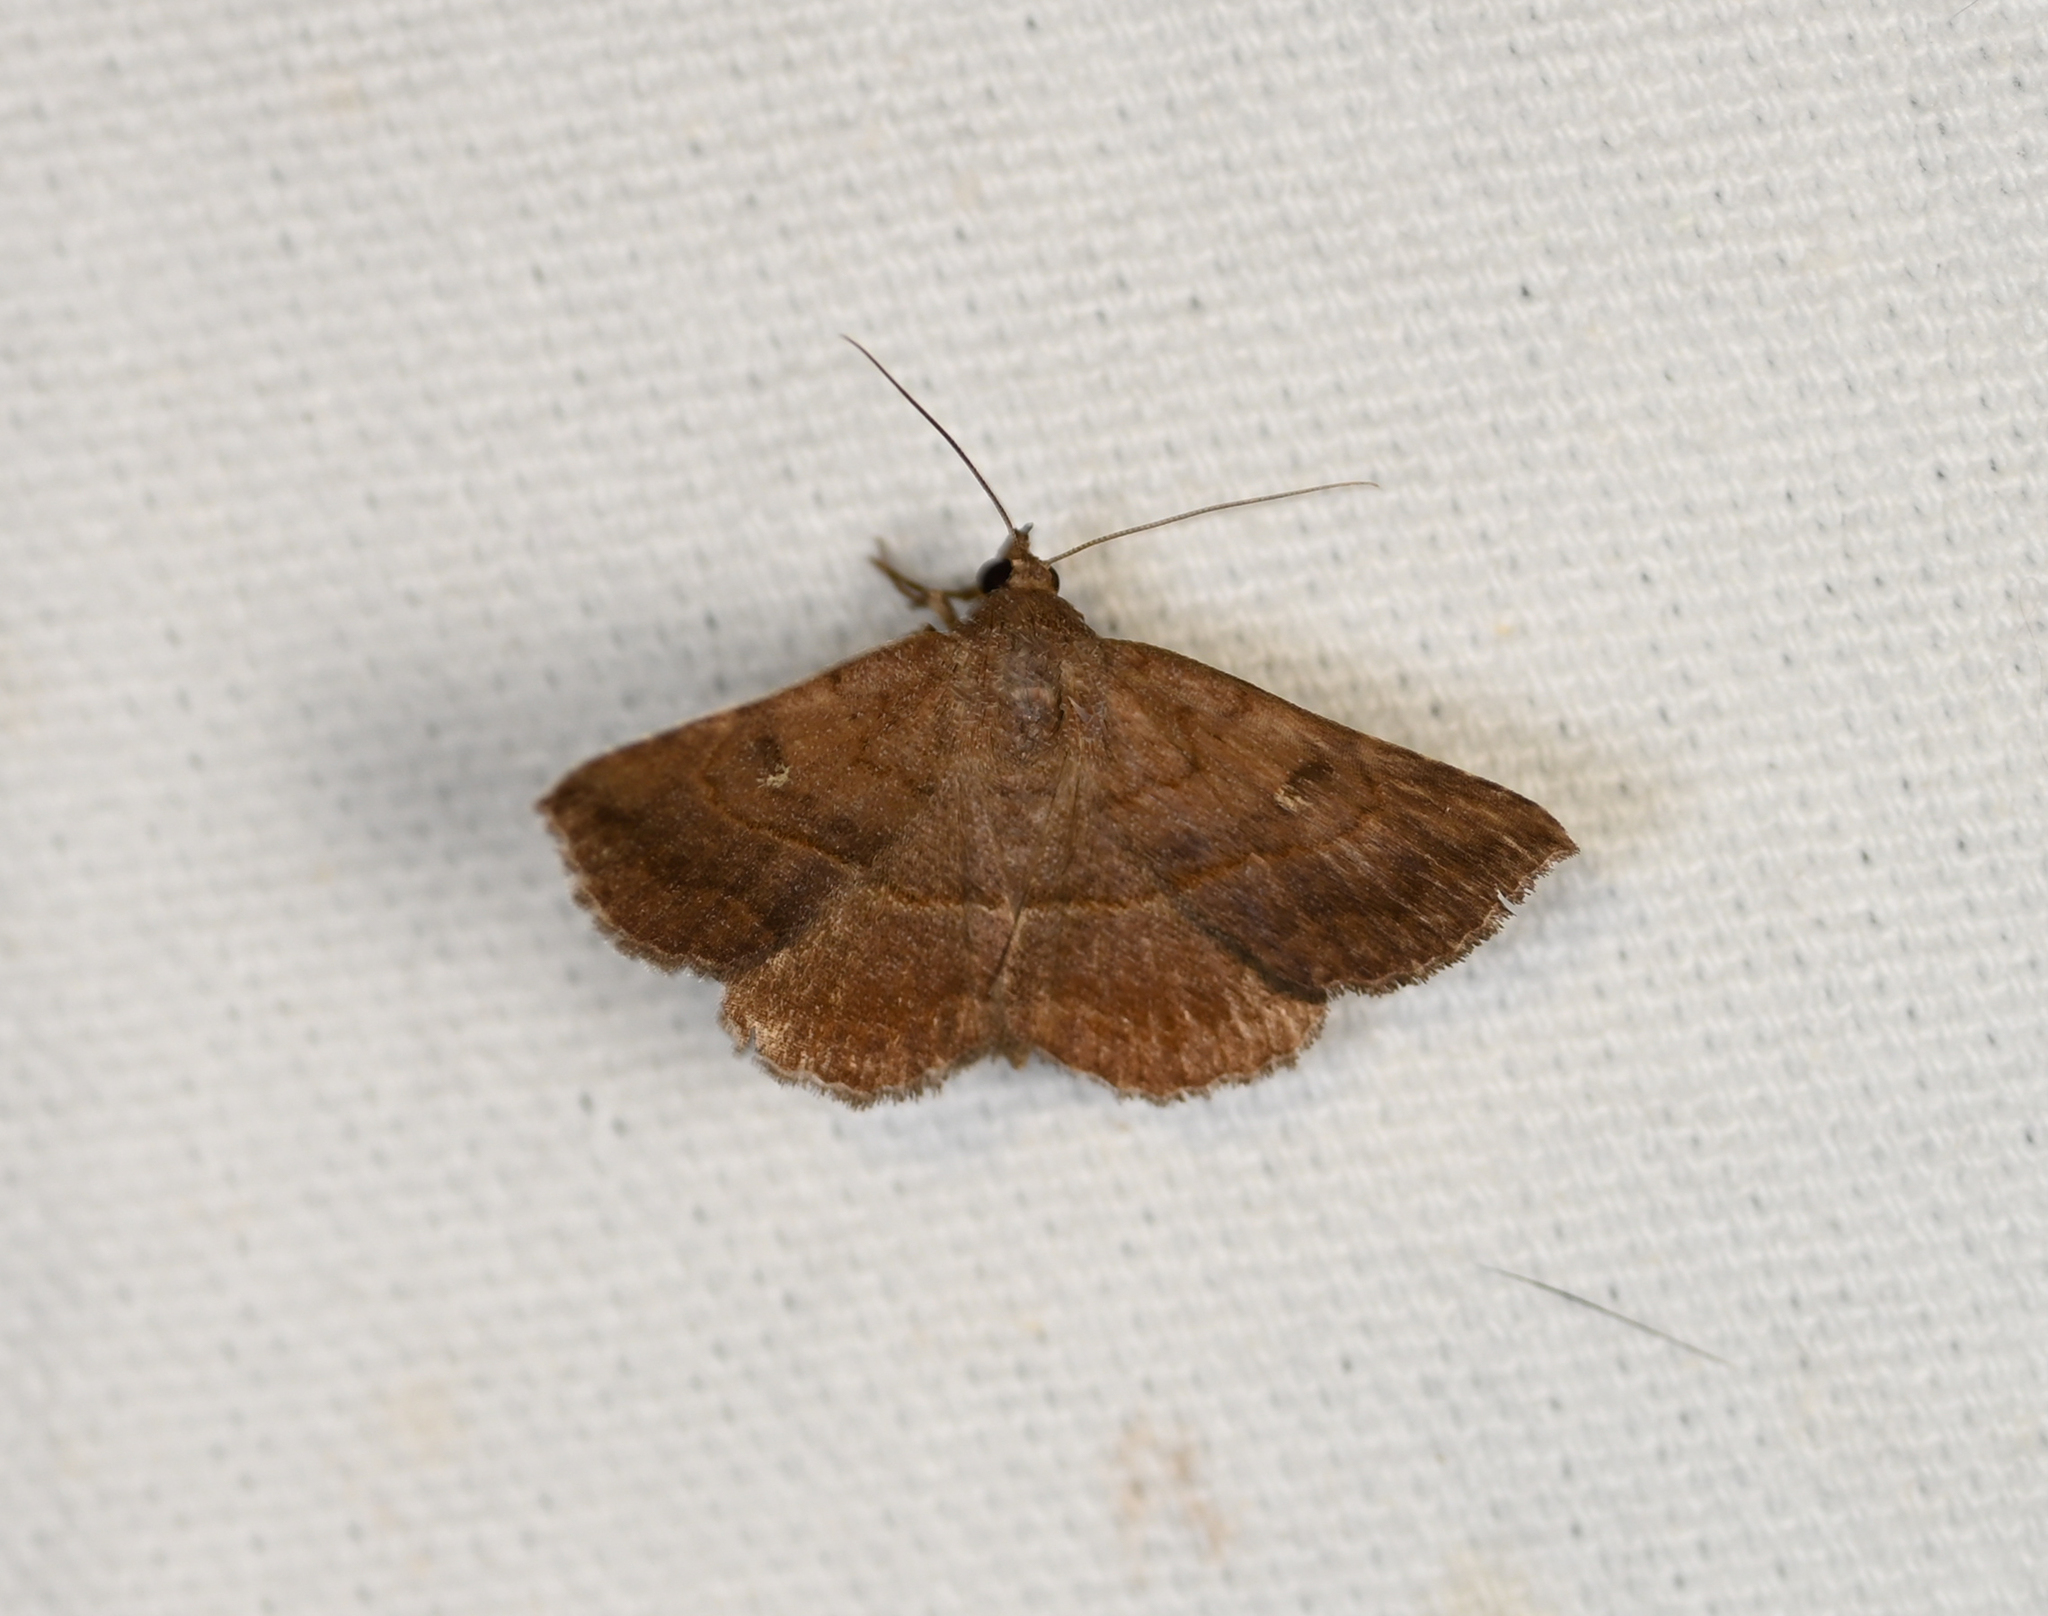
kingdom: Animalia
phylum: Arthropoda
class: Insecta
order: Lepidoptera
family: Erebidae
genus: Lesmone
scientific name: Lesmone detrahens
